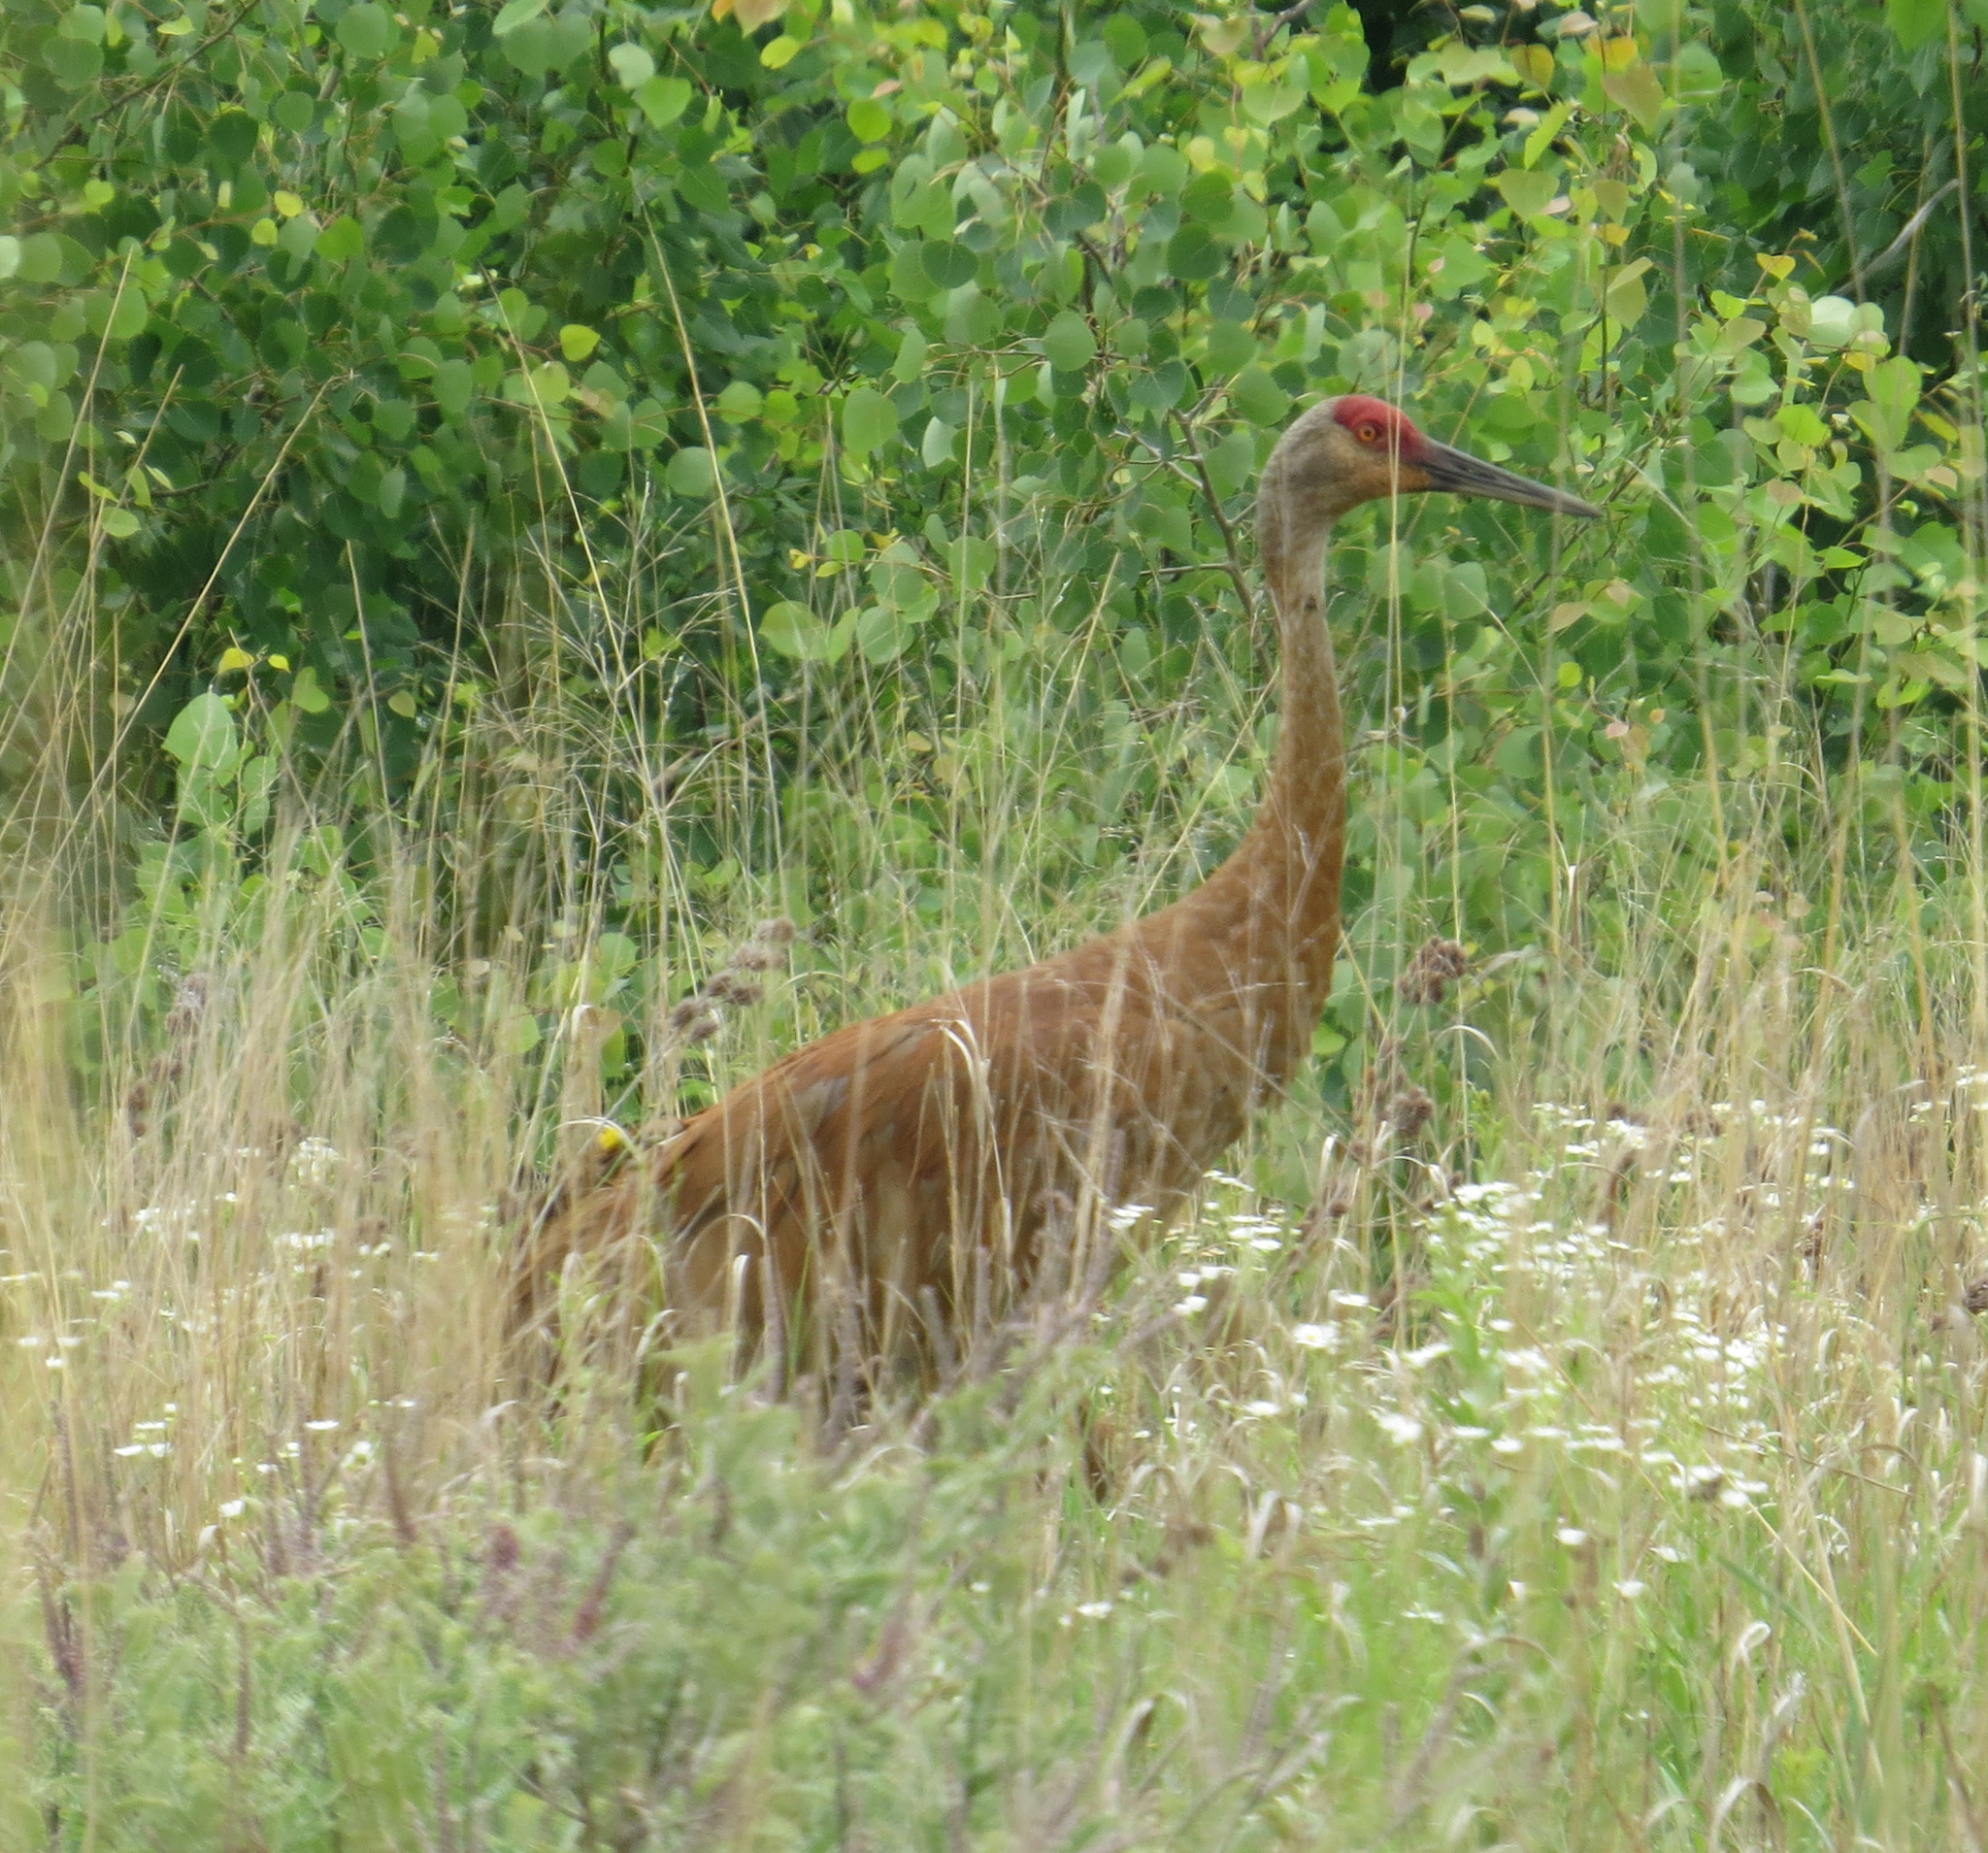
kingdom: Animalia
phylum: Chordata
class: Aves
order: Gruiformes
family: Gruidae
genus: Grus
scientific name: Grus canadensis
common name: Sandhill crane
